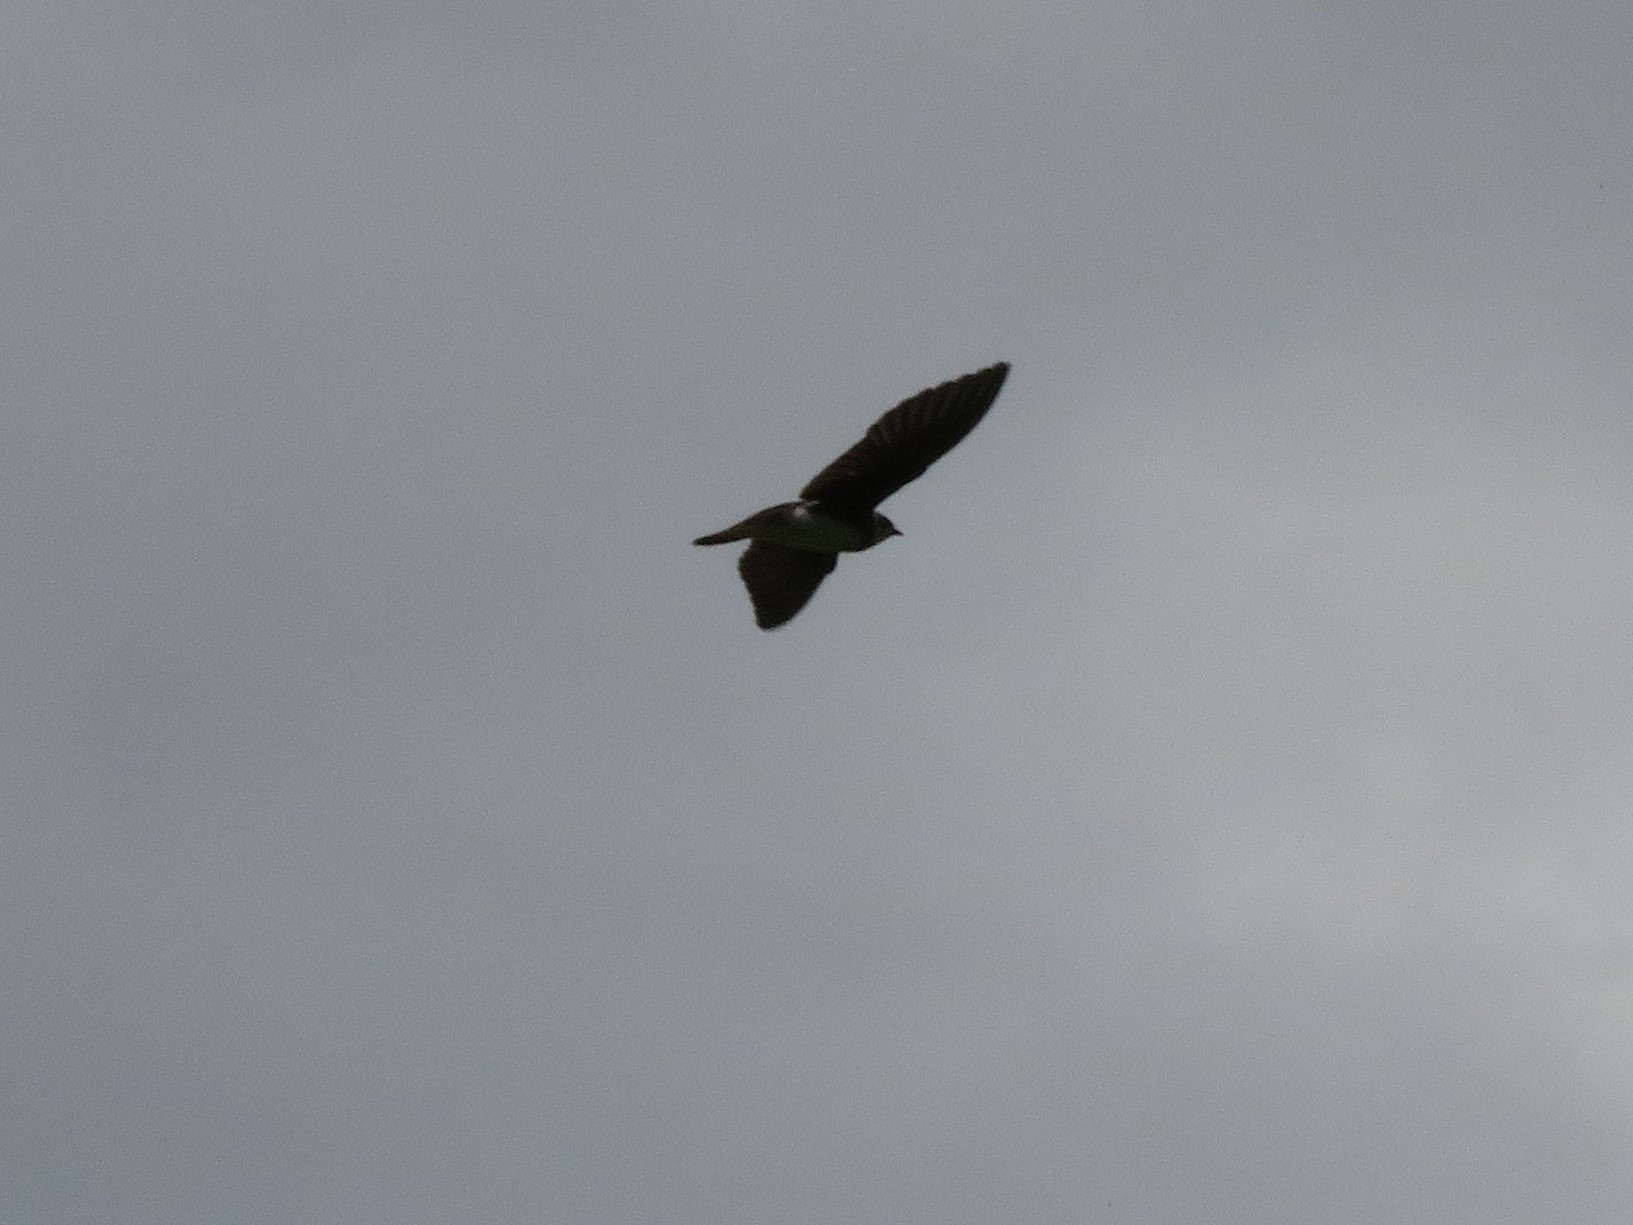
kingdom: Animalia
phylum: Chordata
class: Aves
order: Passeriformes
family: Hirundinidae
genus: Tachycineta
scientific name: Tachycineta leucorrhoa
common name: White-rumped swallow
